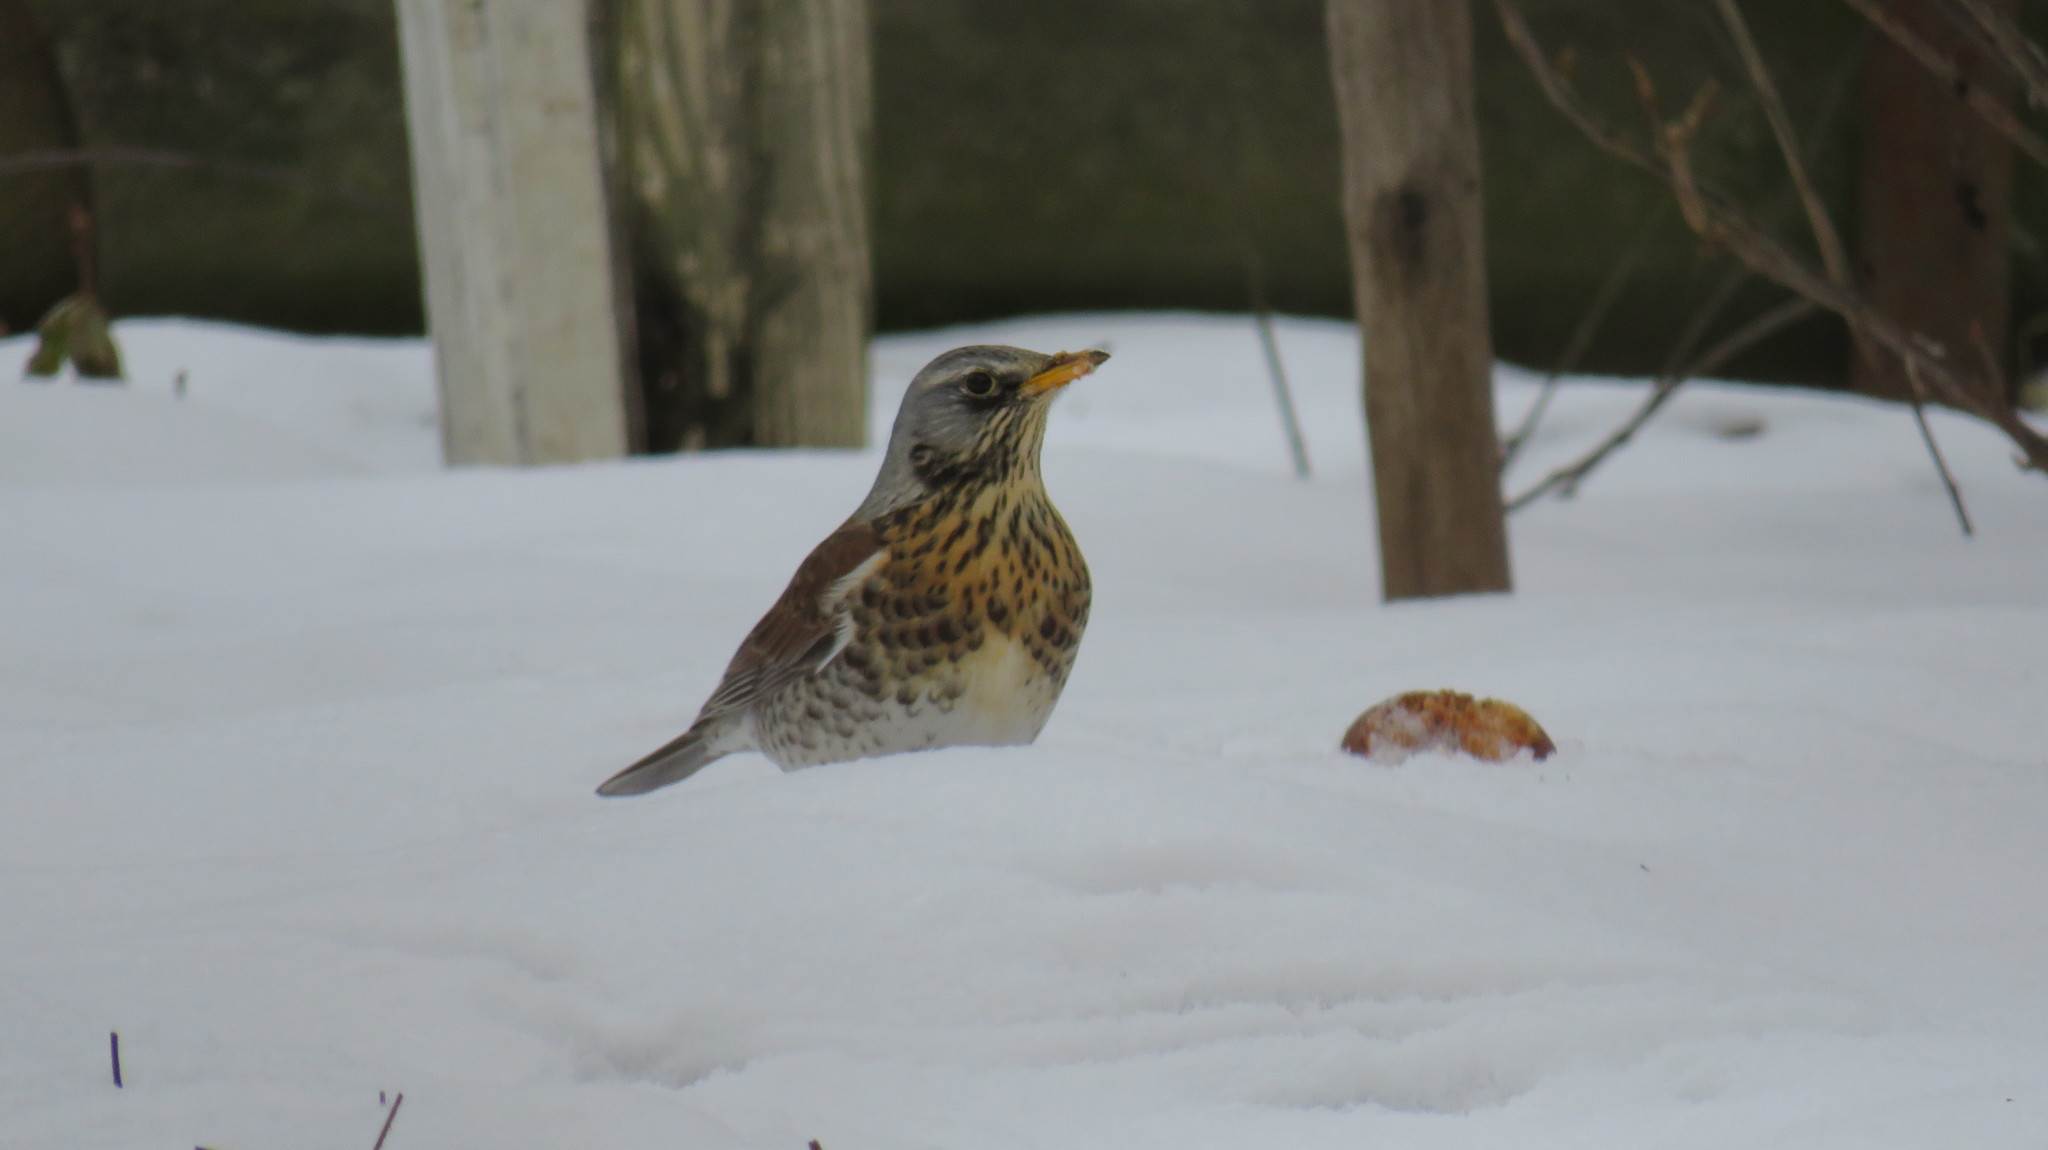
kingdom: Animalia
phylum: Chordata
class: Aves
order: Passeriformes
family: Turdidae
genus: Turdus
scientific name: Turdus pilaris
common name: Fieldfare
